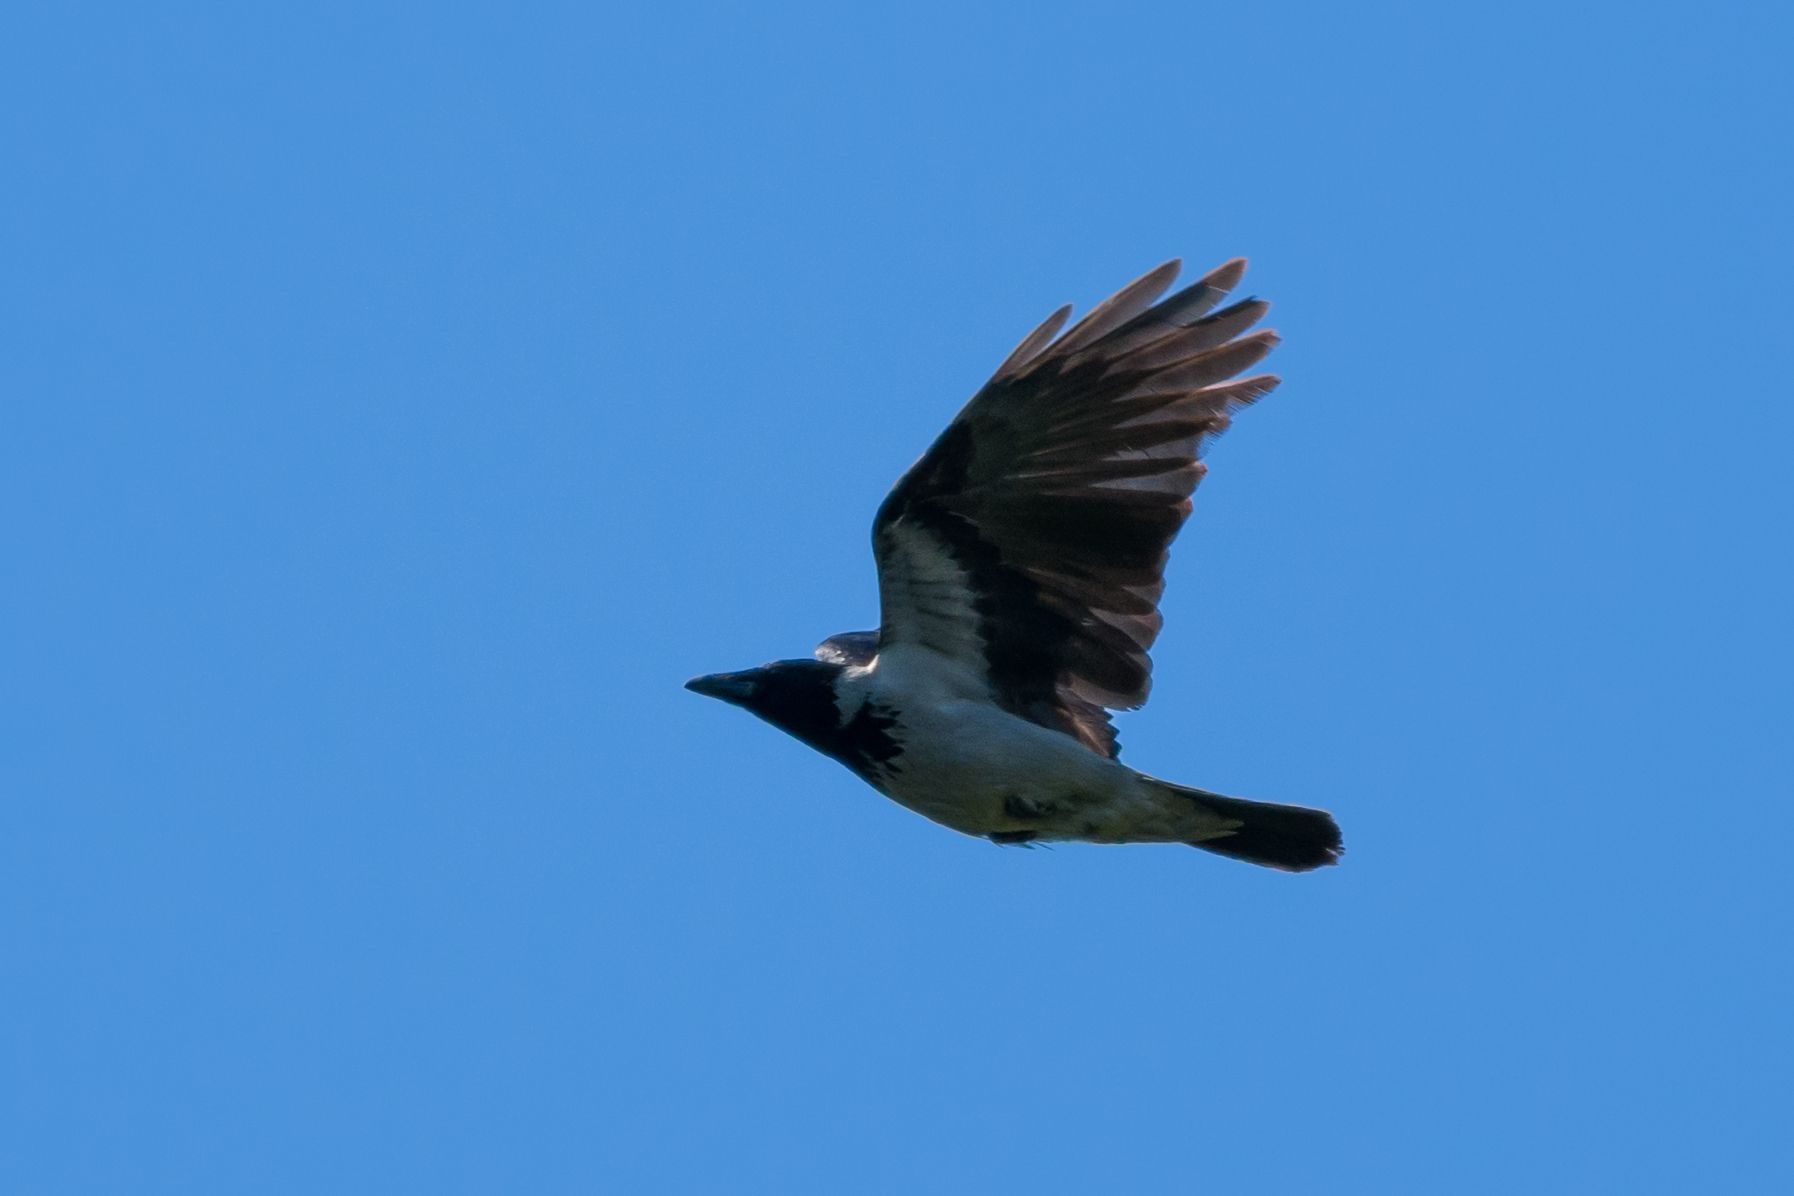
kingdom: Animalia
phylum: Chordata
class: Aves
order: Passeriformes
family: Corvidae
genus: Corvus
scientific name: Corvus cornix
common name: Hooded crow
